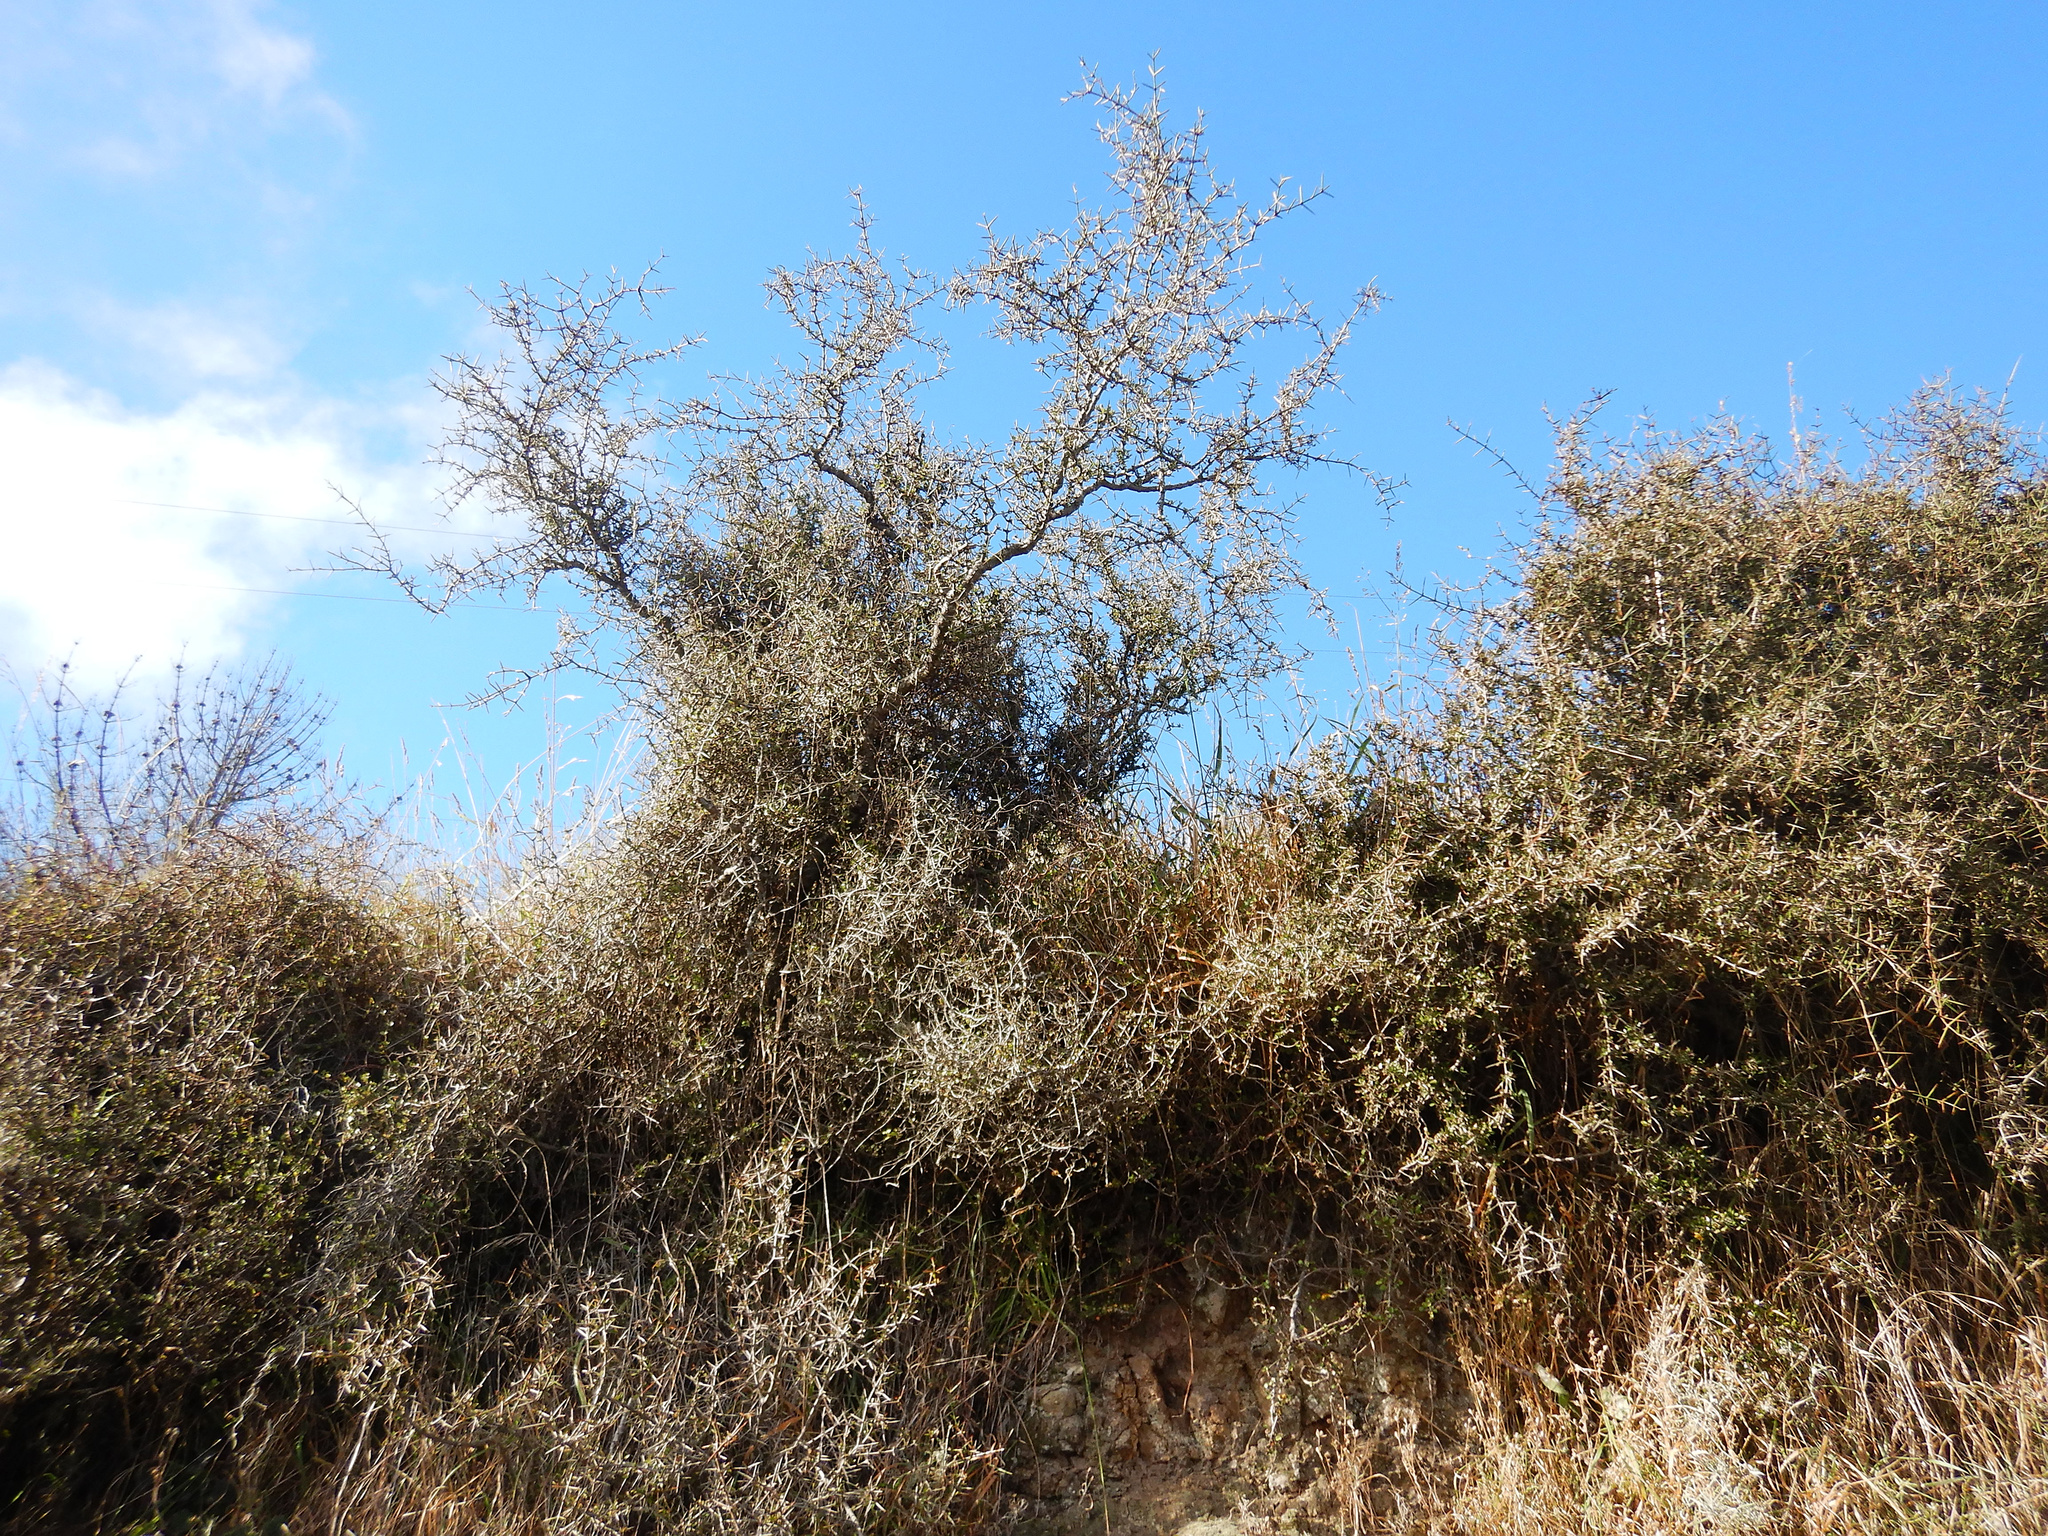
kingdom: Plantae
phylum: Tracheophyta
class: Magnoliopsida
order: Rosales
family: Rhamnaceae
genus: Discaria
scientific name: Discaria toumatou
